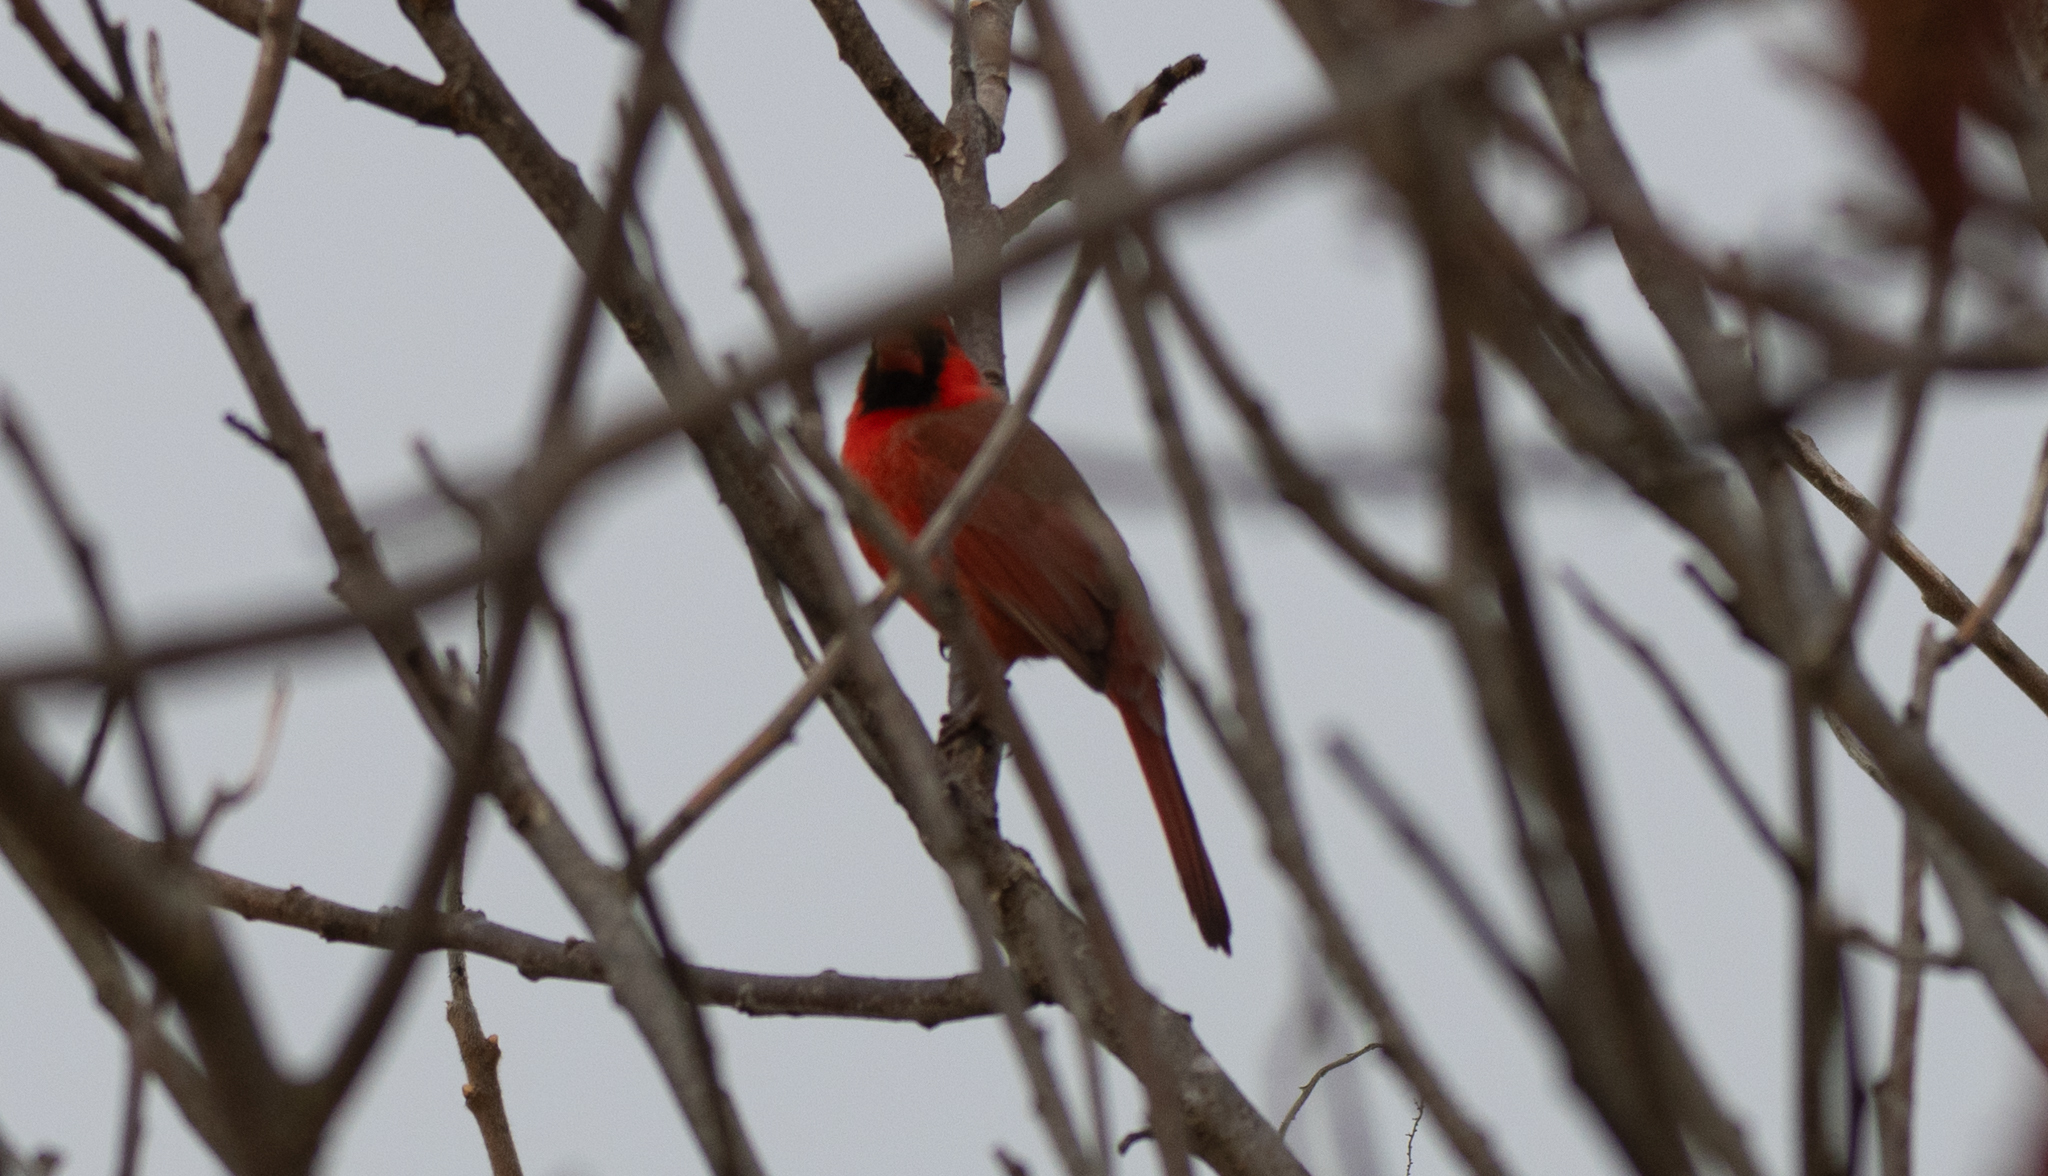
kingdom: Animalia
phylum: Chordata
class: Aves
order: Passeriformes
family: Cardinalidae
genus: Cardinalis
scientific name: Cardinalis cardinalis
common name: Northern cardinal
